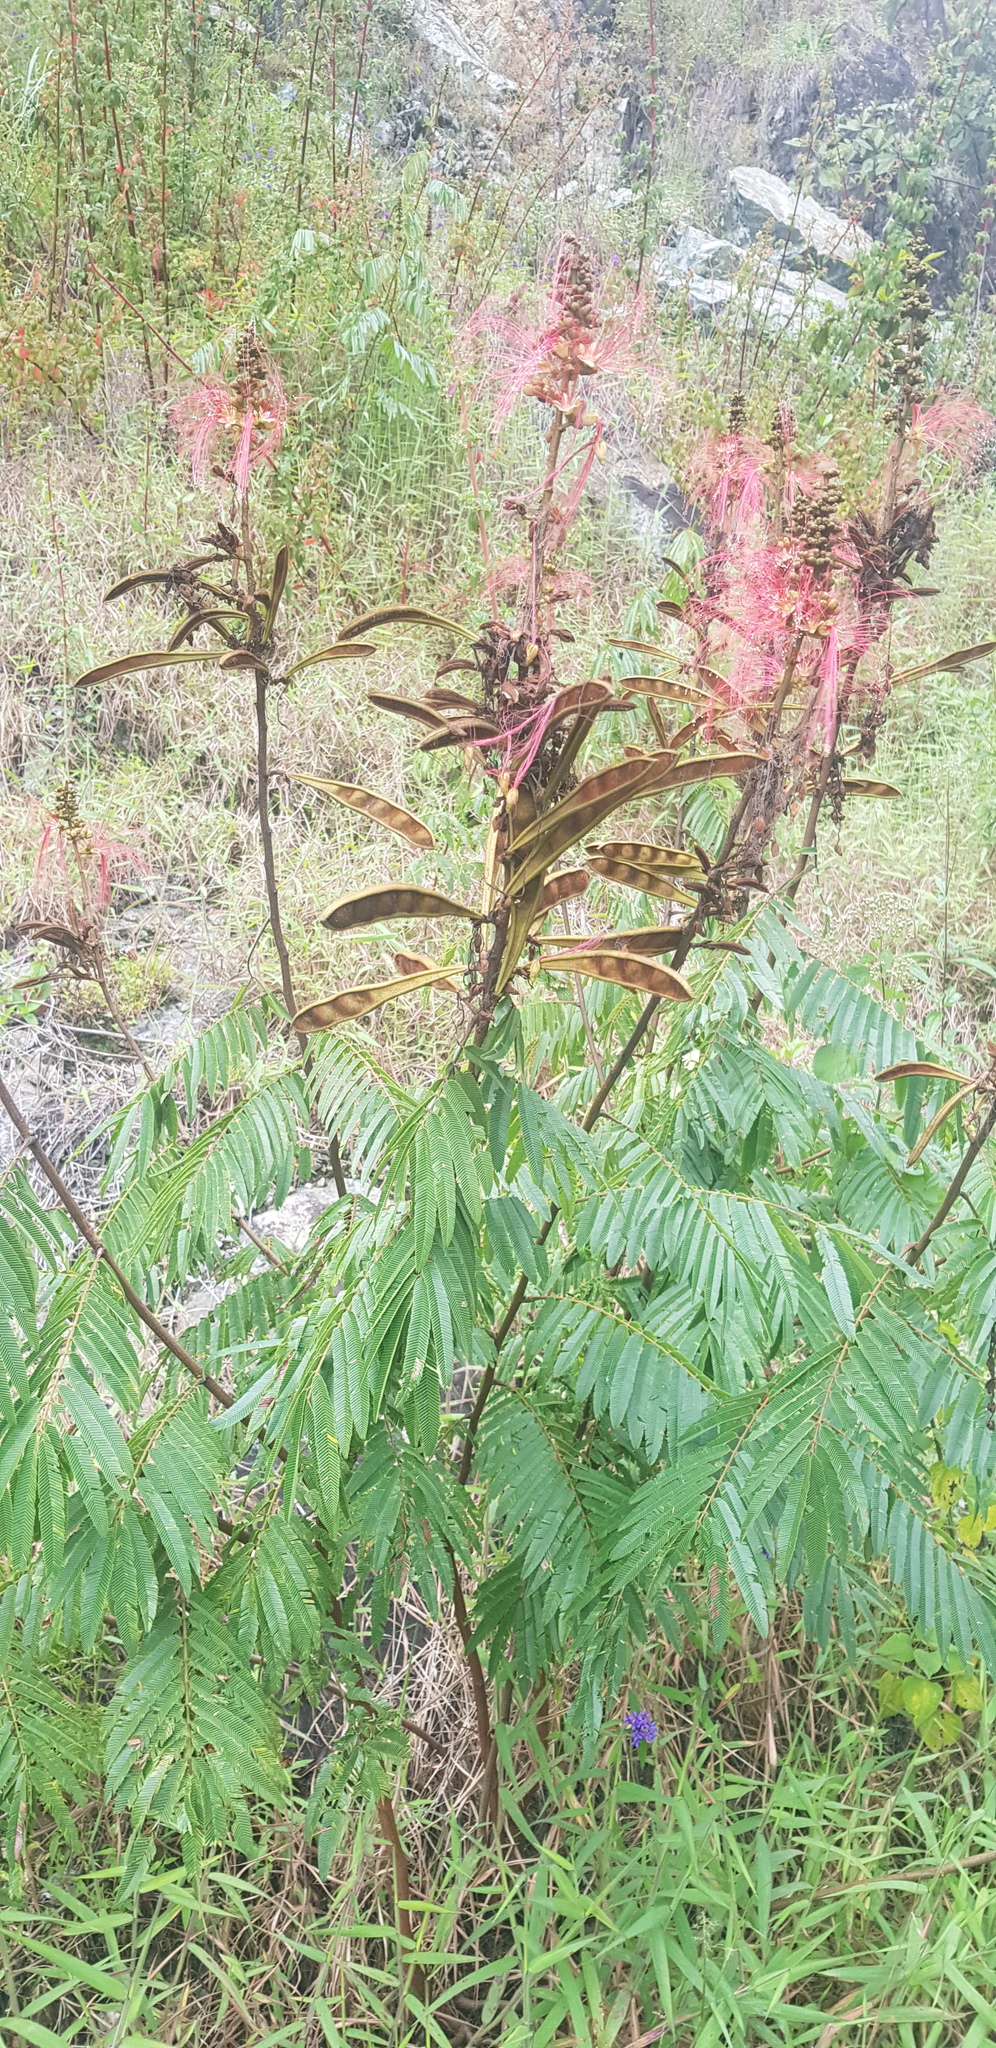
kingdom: Plantae
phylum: Tracheophyta
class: Magnoliopsida
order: Fabales
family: Fabaceae
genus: Calliandra
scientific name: Calliandra houstoniana
